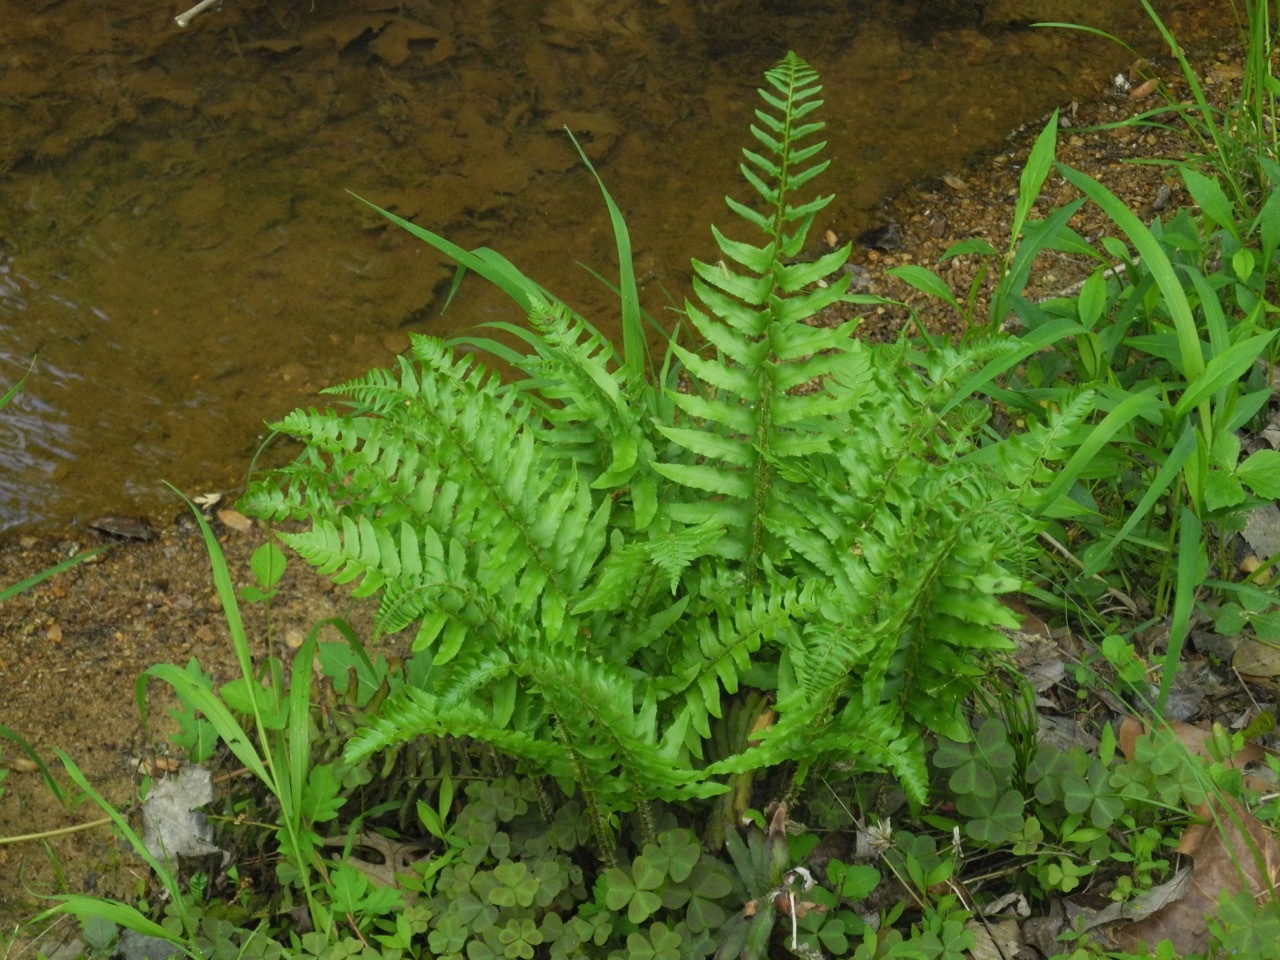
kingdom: Plantae
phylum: Tracheophyta
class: Polypodiopsida
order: Polypodiales
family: Dryopteridaceae
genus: Polystichum
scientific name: Polystichum acrostichoides
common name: Christmas fern
